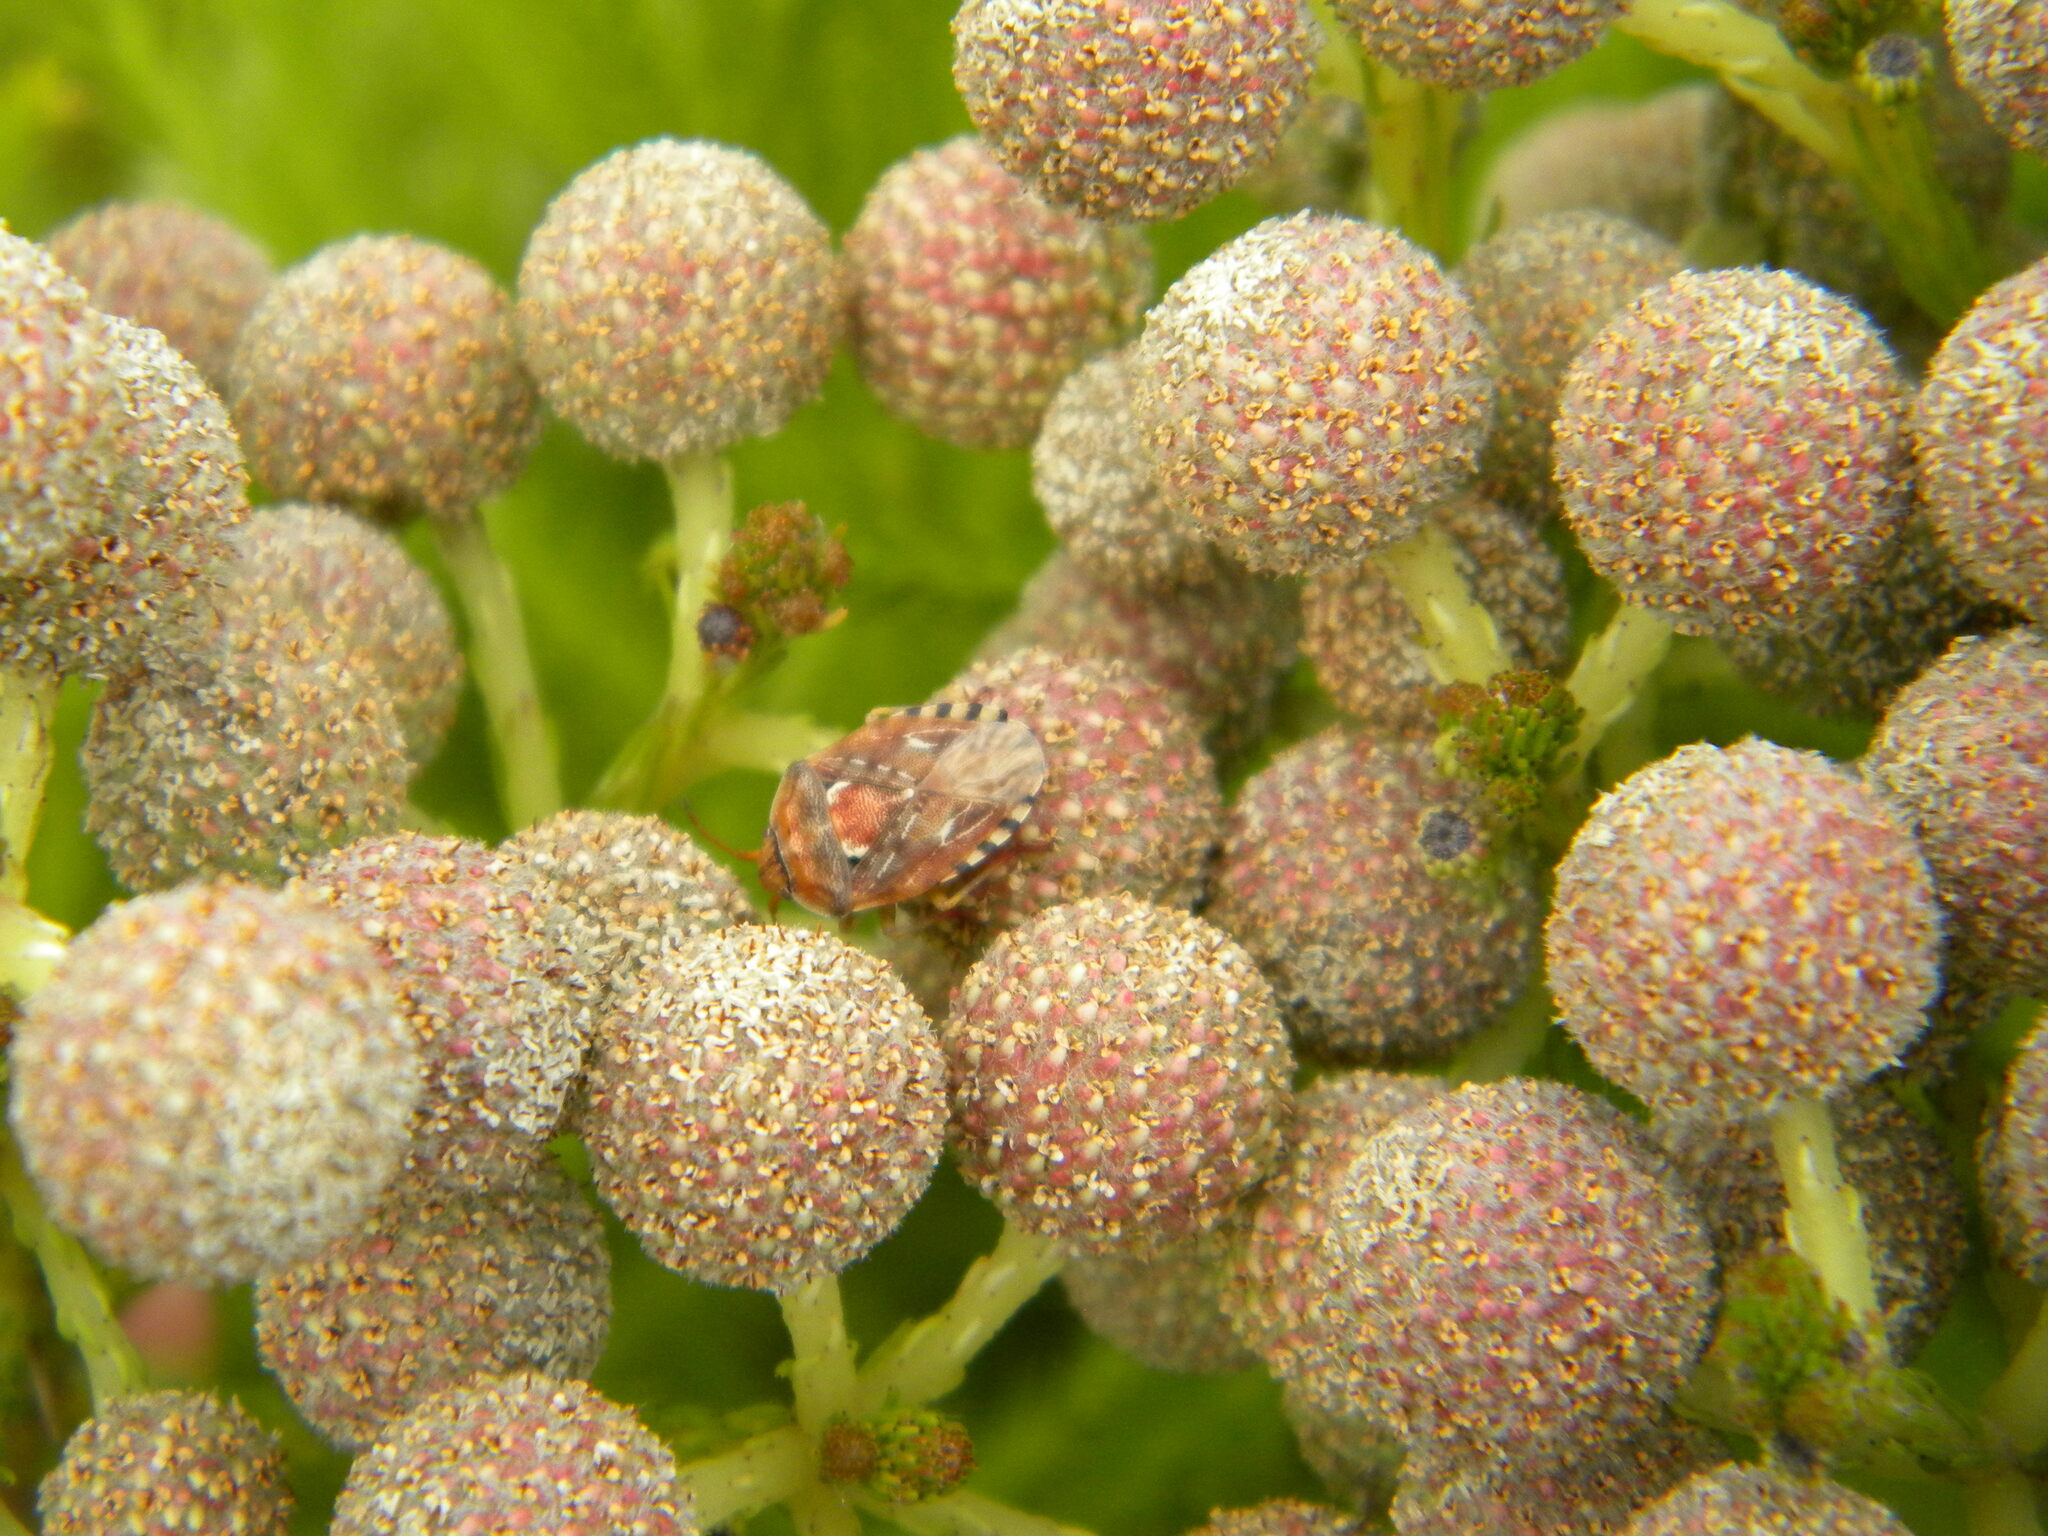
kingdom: Animalia
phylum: Arthropoda
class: Insecta
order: Hemiptera
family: Acanthosomatidae
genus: Esbenia
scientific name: Esbenia major
